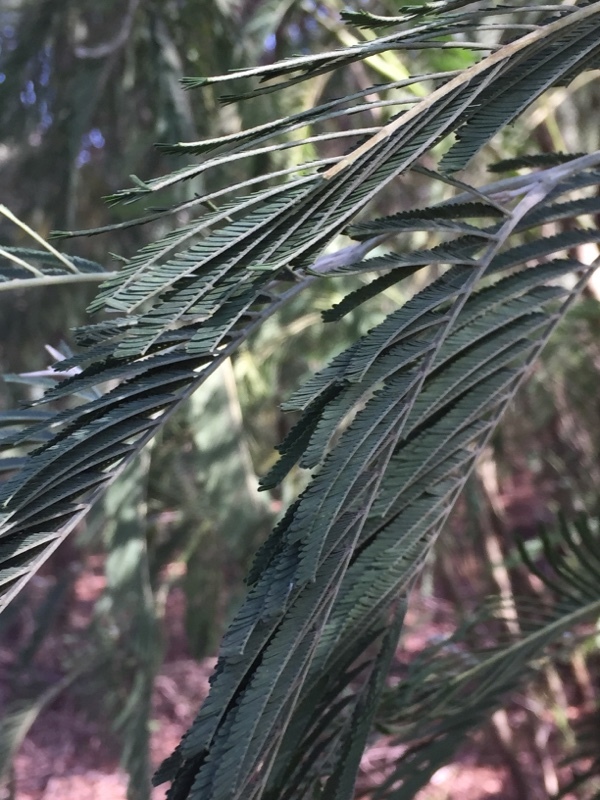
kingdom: Plantae
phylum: Tracheophyta
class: Magnoliopsida
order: Fabales
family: Fabaceae
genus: Acacia
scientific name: Acacia dealbata
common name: Silver wattle
